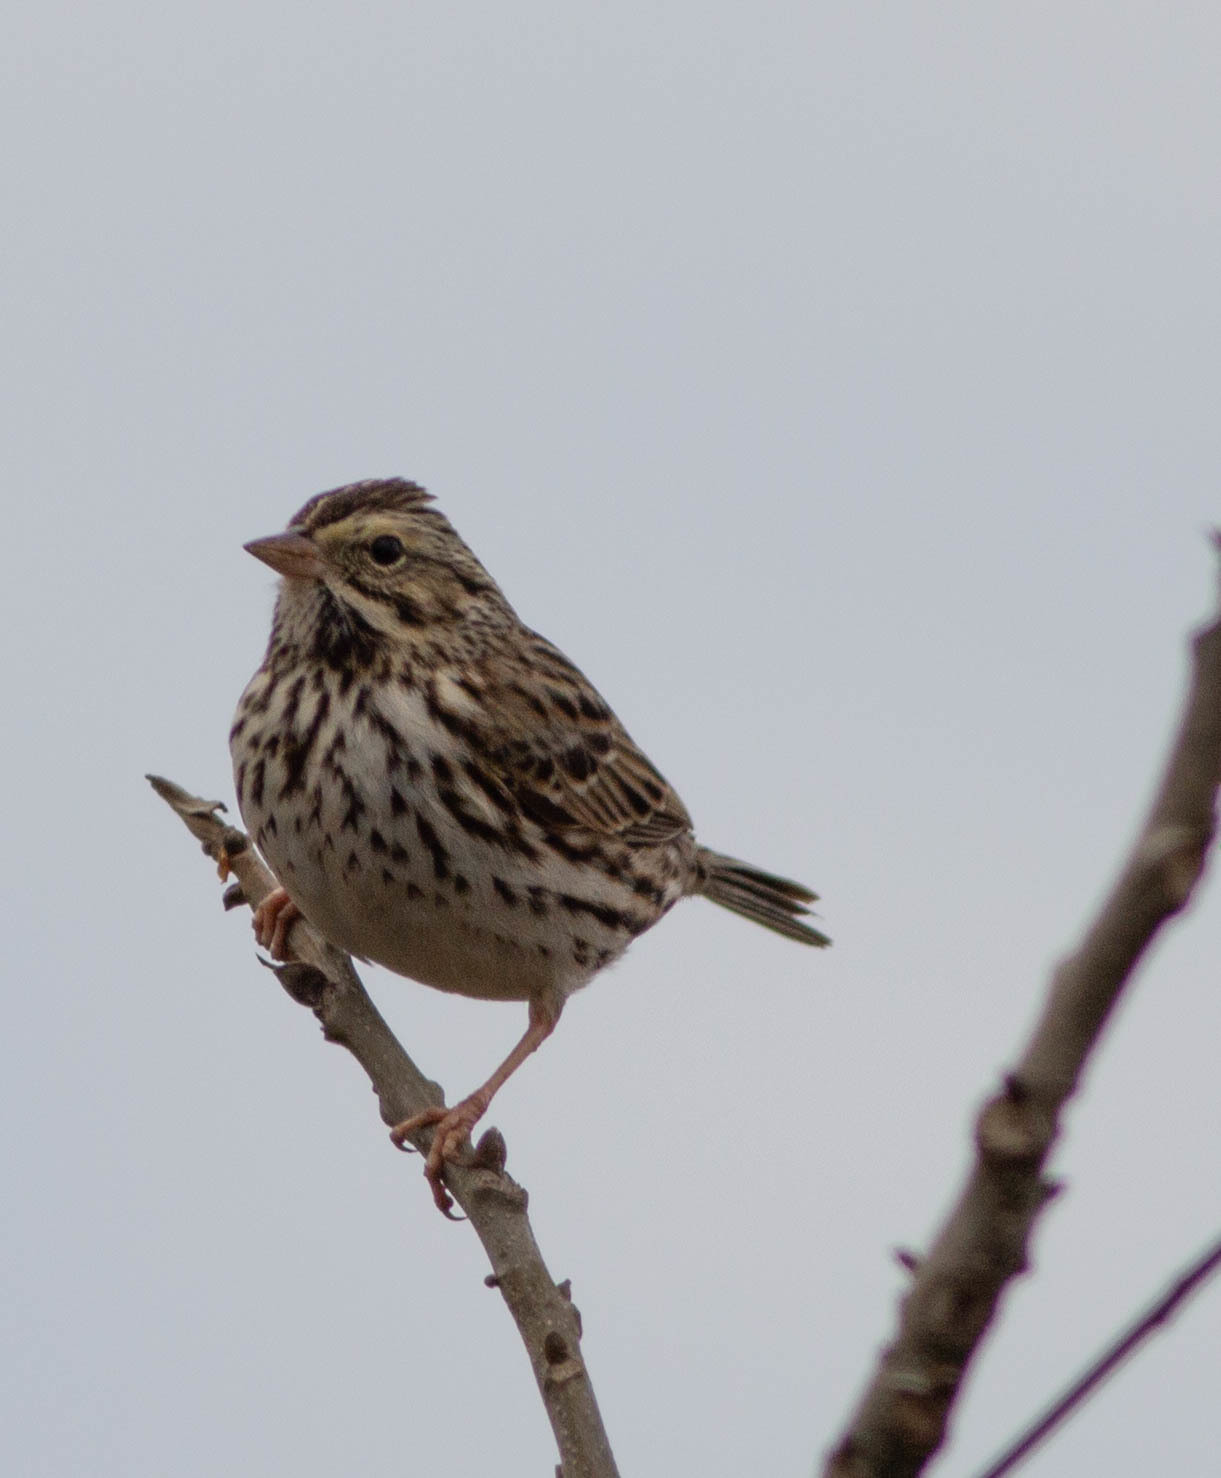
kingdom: Animalia
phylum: Chordata
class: Aves
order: Passeriformes
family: Passerellidae
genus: Passerculus
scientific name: Passerculus sandwichensis
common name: Savannah sparrow
